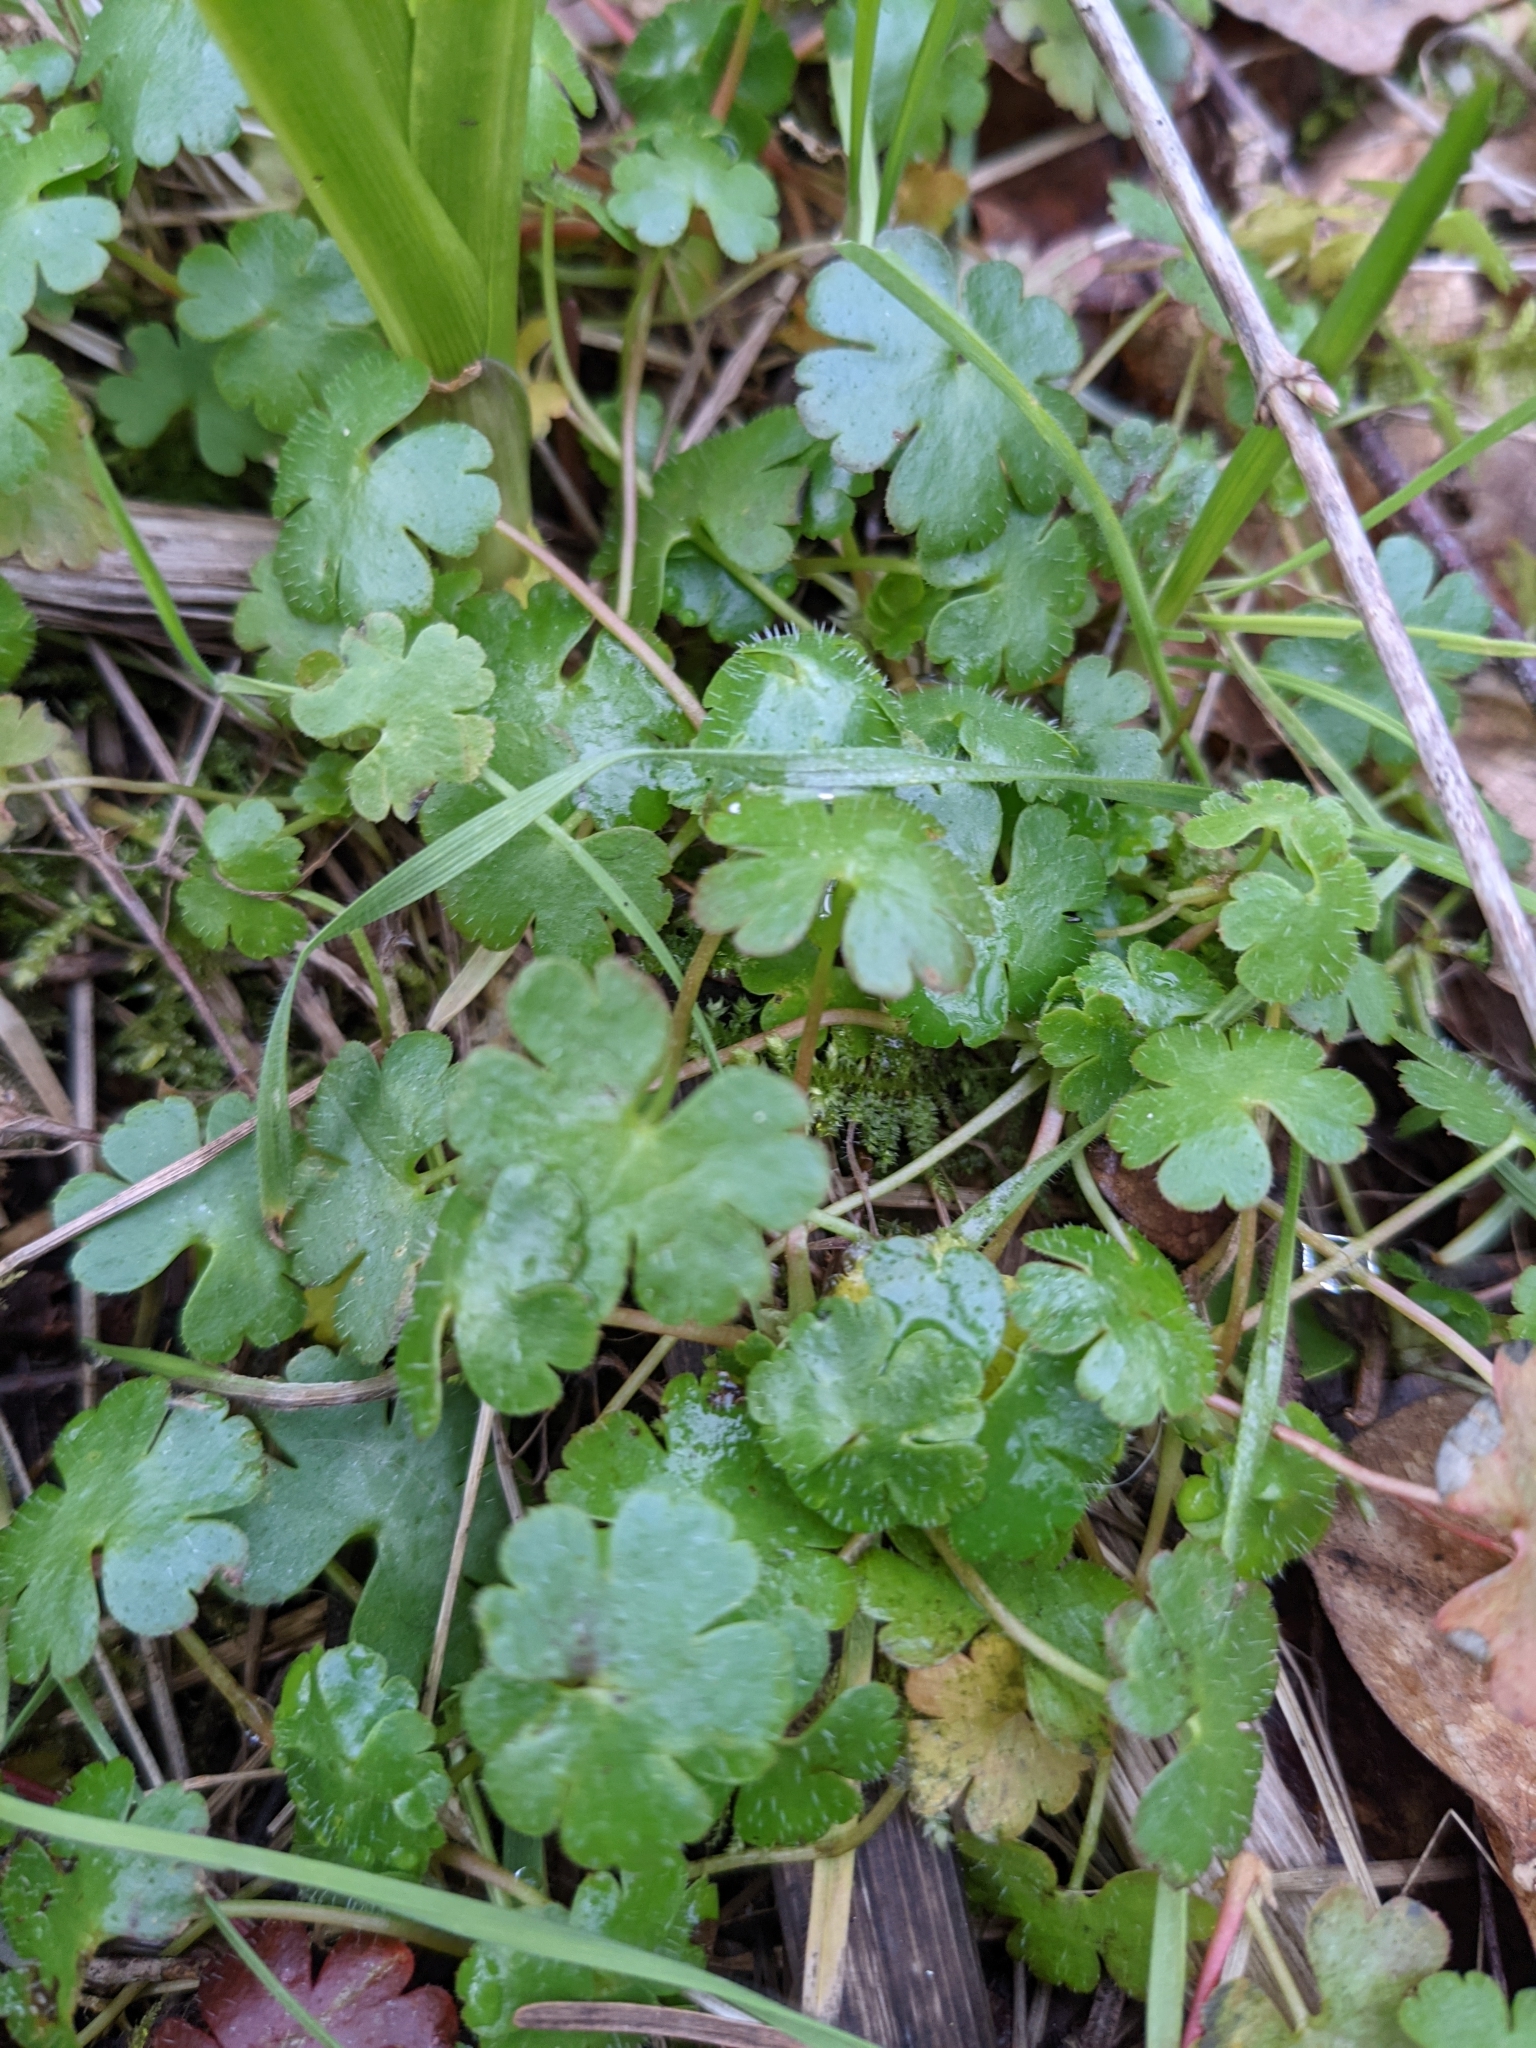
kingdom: Plantae
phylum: Tracheophyta
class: Magnoliopsida
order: Geraniales
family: Geraniaceae
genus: Geranium
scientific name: Geranium lucidum
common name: Shining crane's-bill
